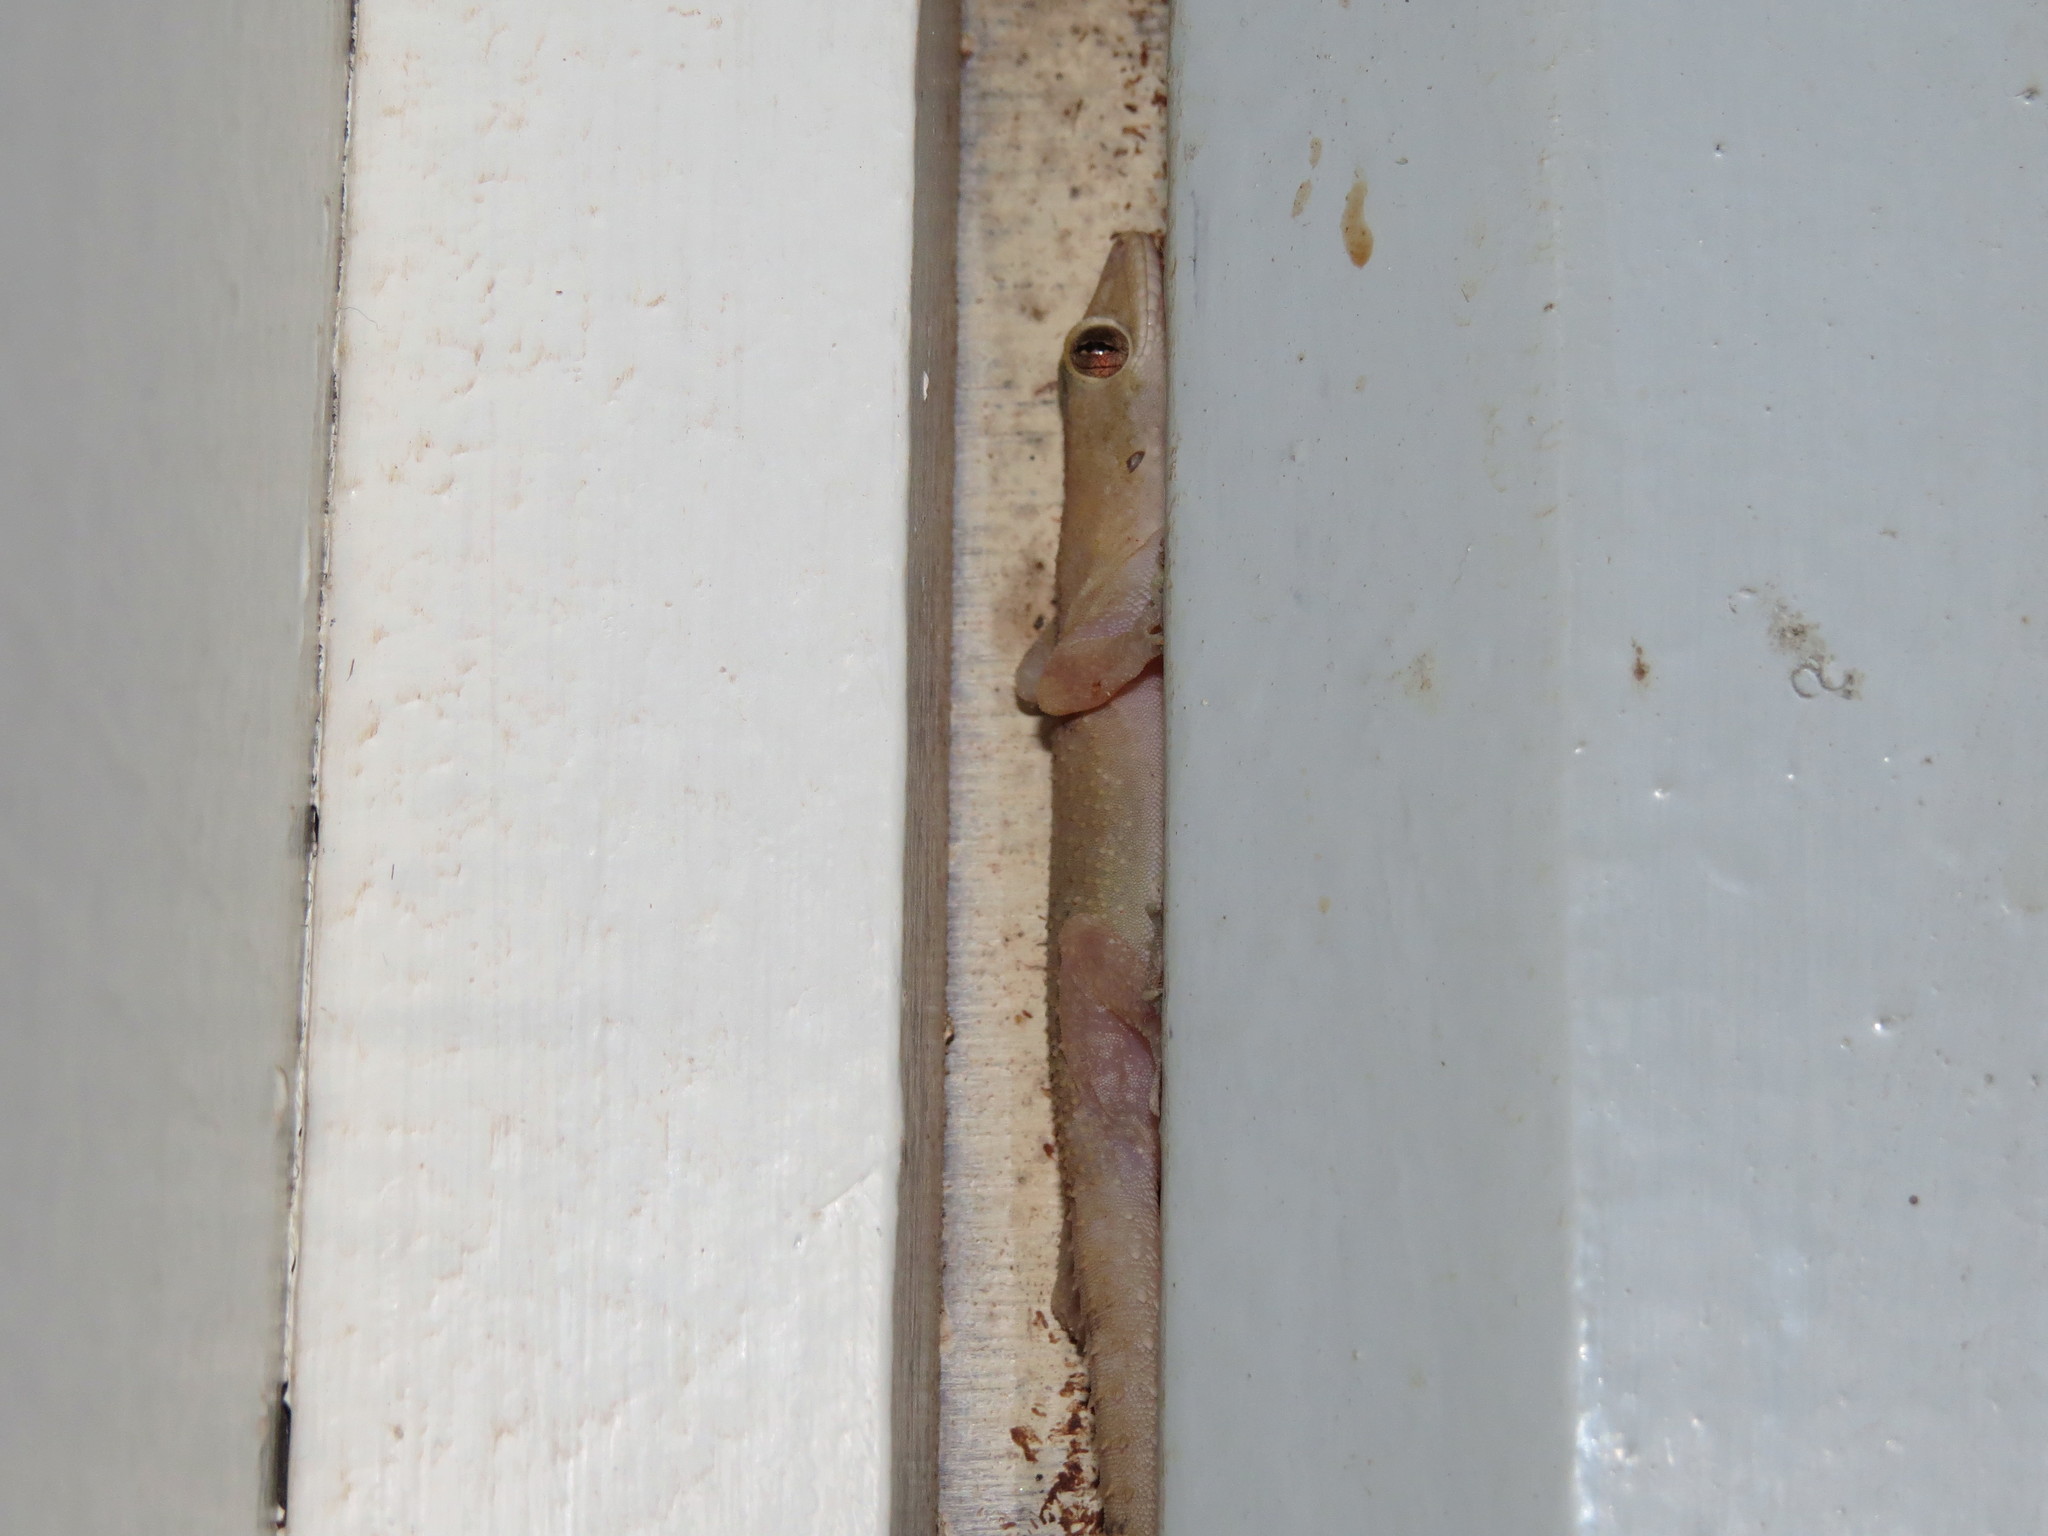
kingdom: Animalia
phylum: Chordata
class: Squamata
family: Gekkonidae
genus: Hemidactylus
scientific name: Hemidactylus mabouia
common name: House gecko
